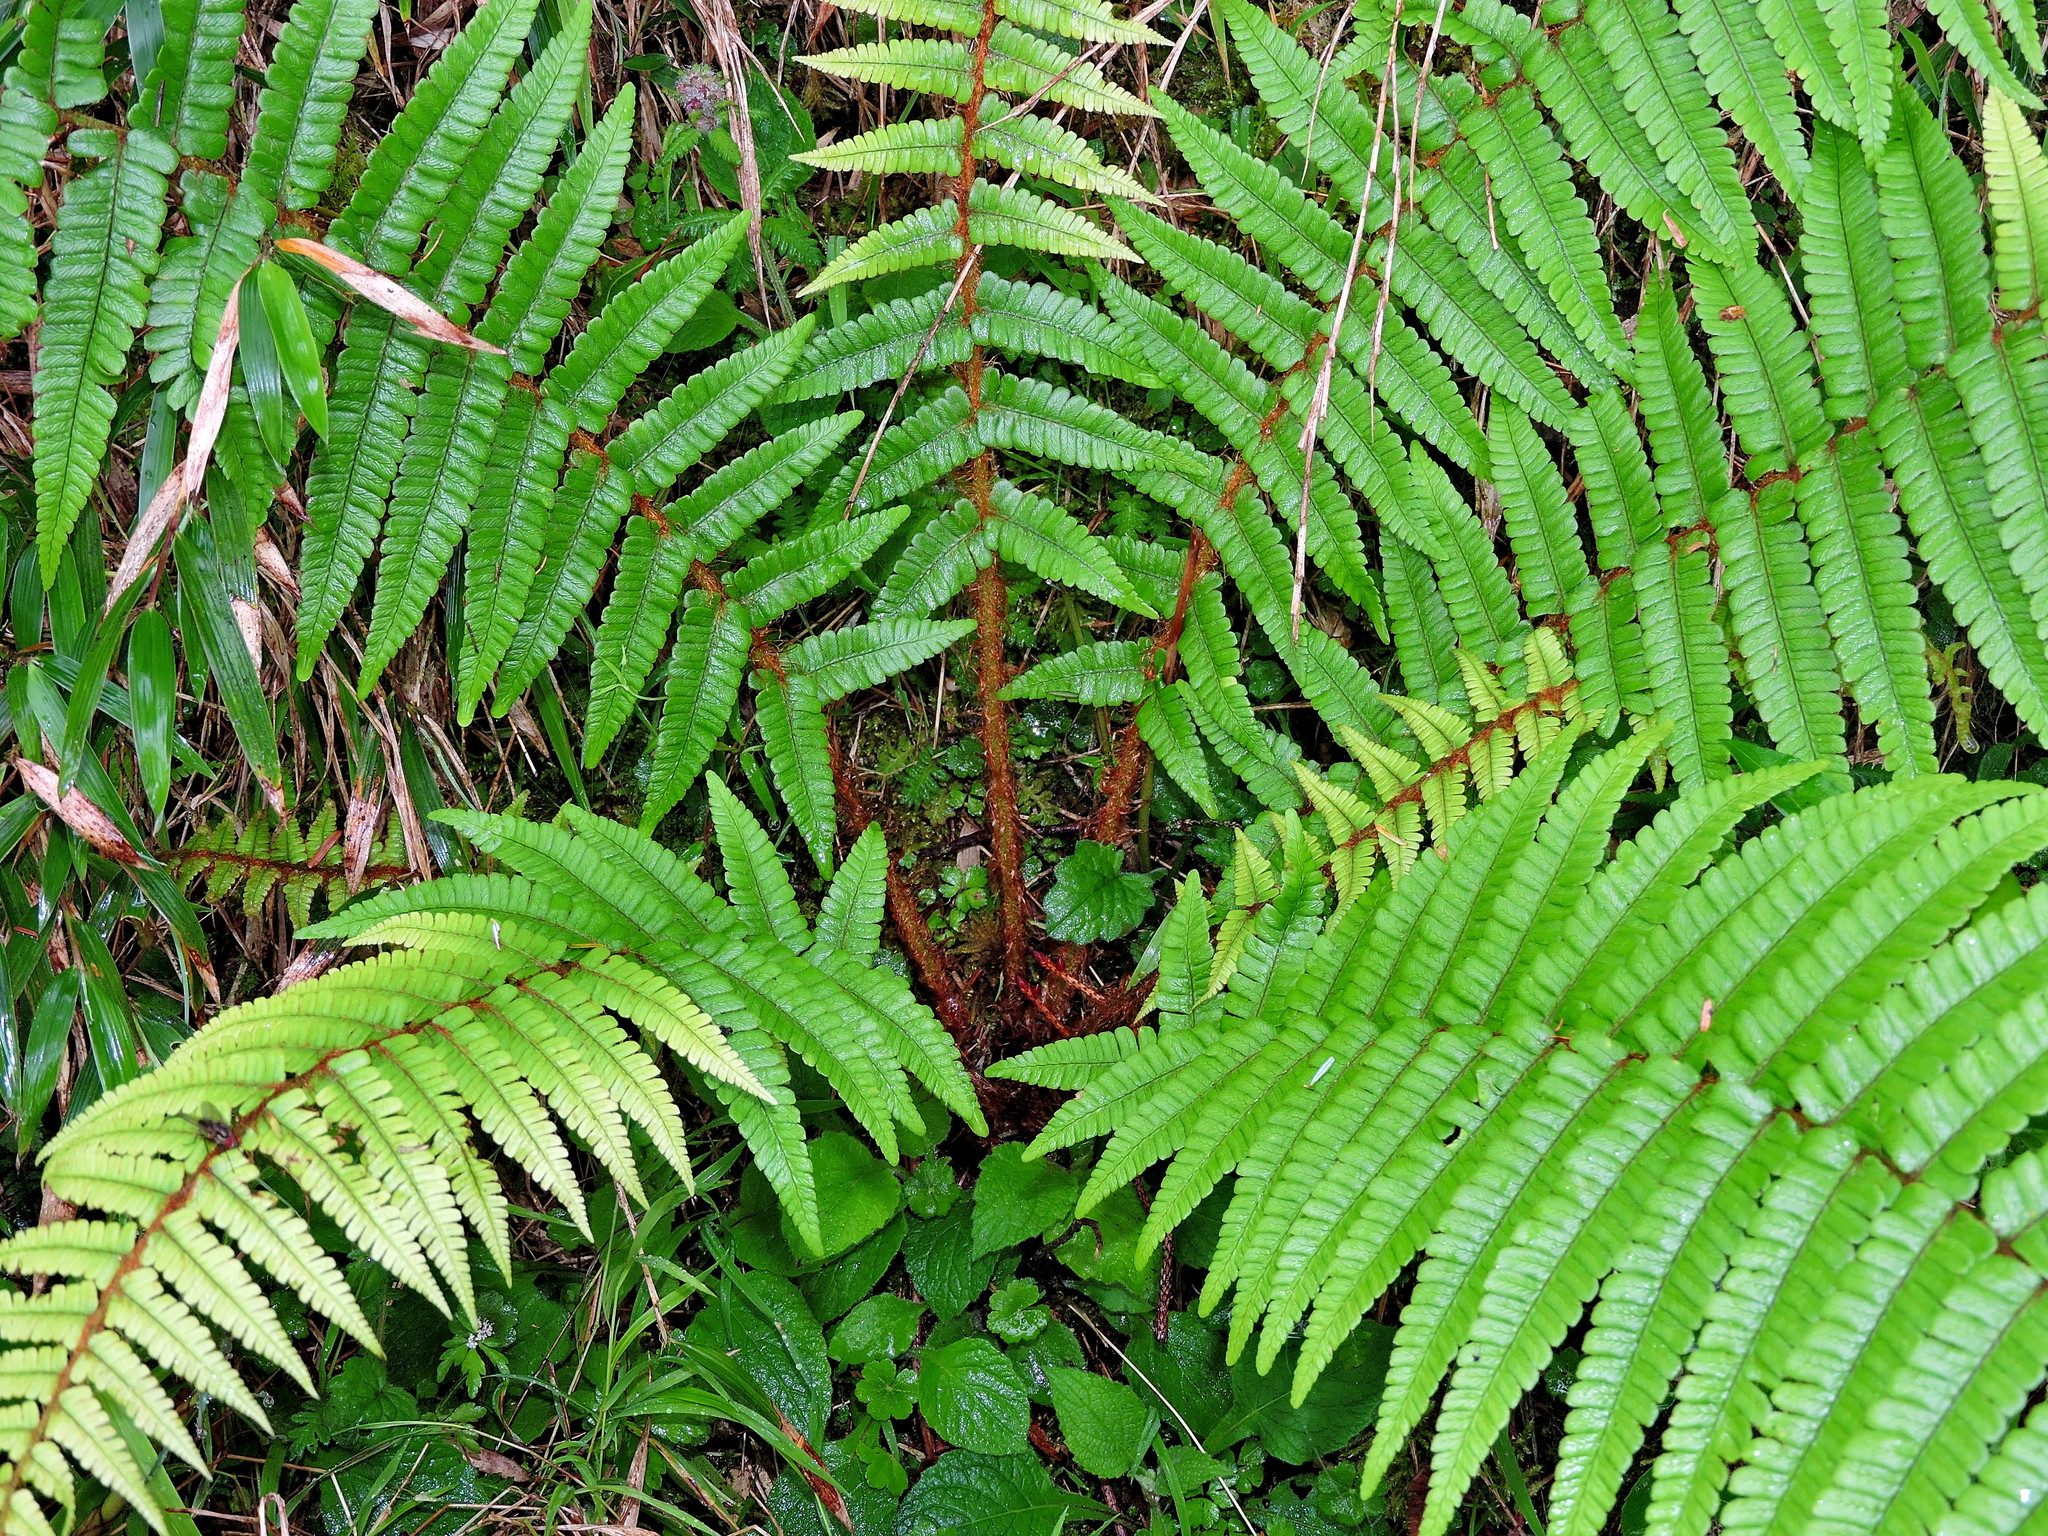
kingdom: Plantae
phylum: Tracheophyta
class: Polypodiopsida
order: Polypodiales
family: Dryopteridaceae
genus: Dryopteris
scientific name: Dryopteris redactopinnata
